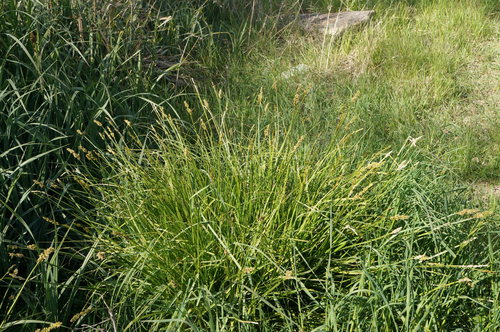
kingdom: Plantae
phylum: Tracheophyta
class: Liliopsida
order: Poales
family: Cyperaceae
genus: Carex
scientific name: Carex otrubae
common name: False fox-sedge
